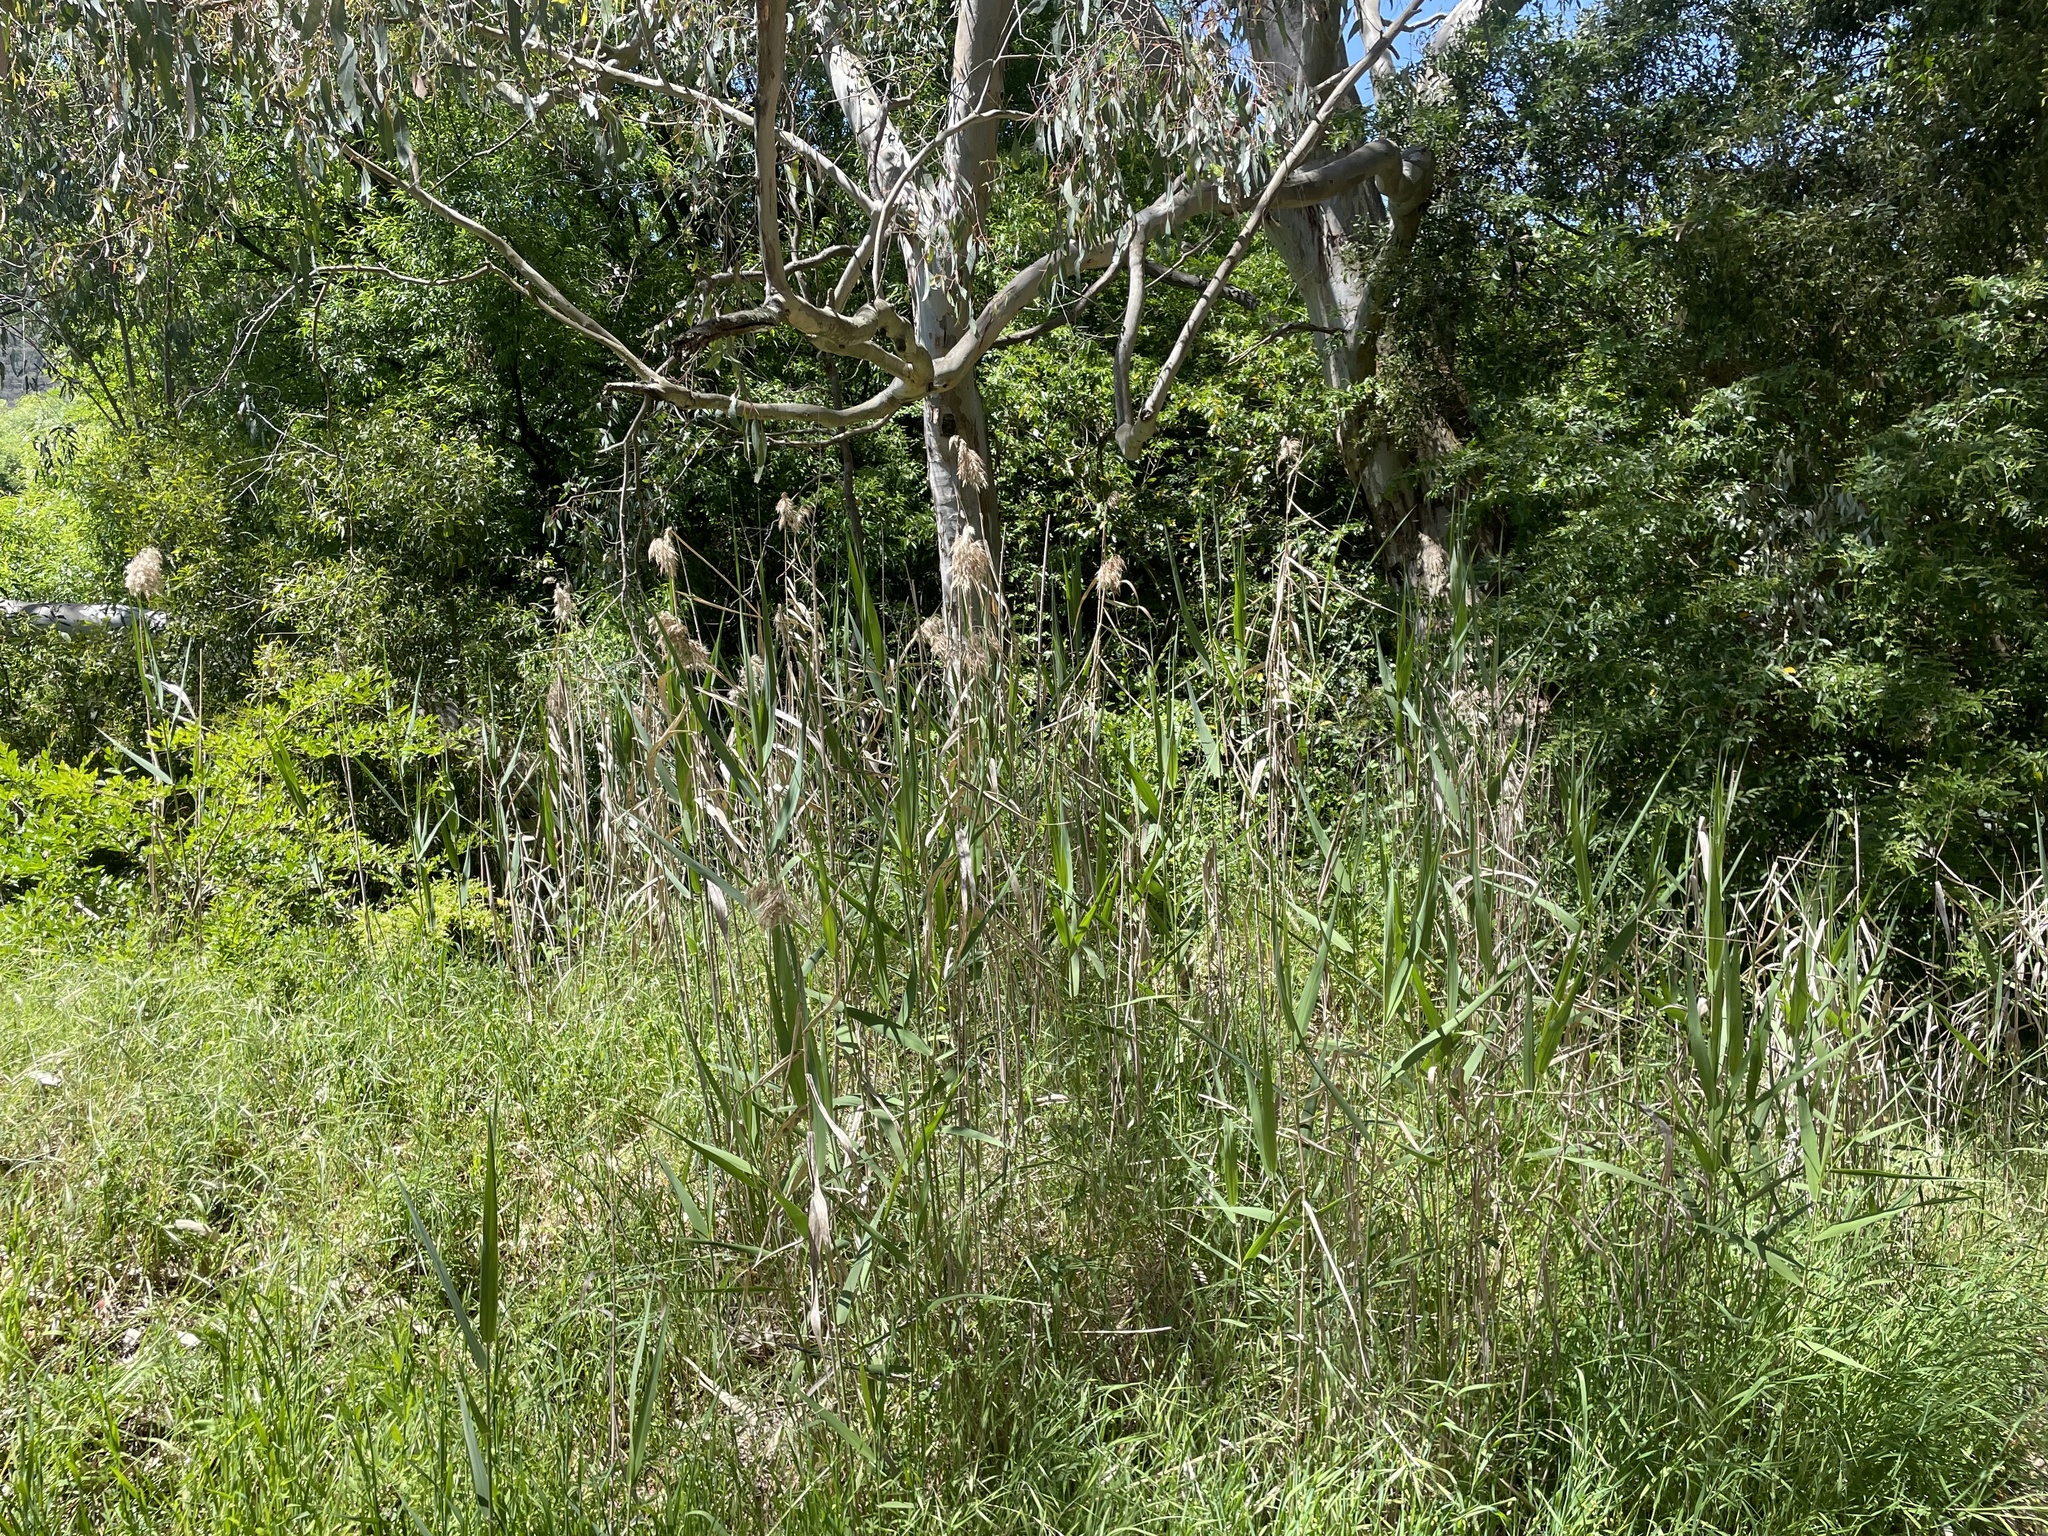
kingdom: Plantae
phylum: Tracheophyta
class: Liliopsida
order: Poales
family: Poaceae
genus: Phragmites
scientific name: Phragmites australis
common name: Common reed
